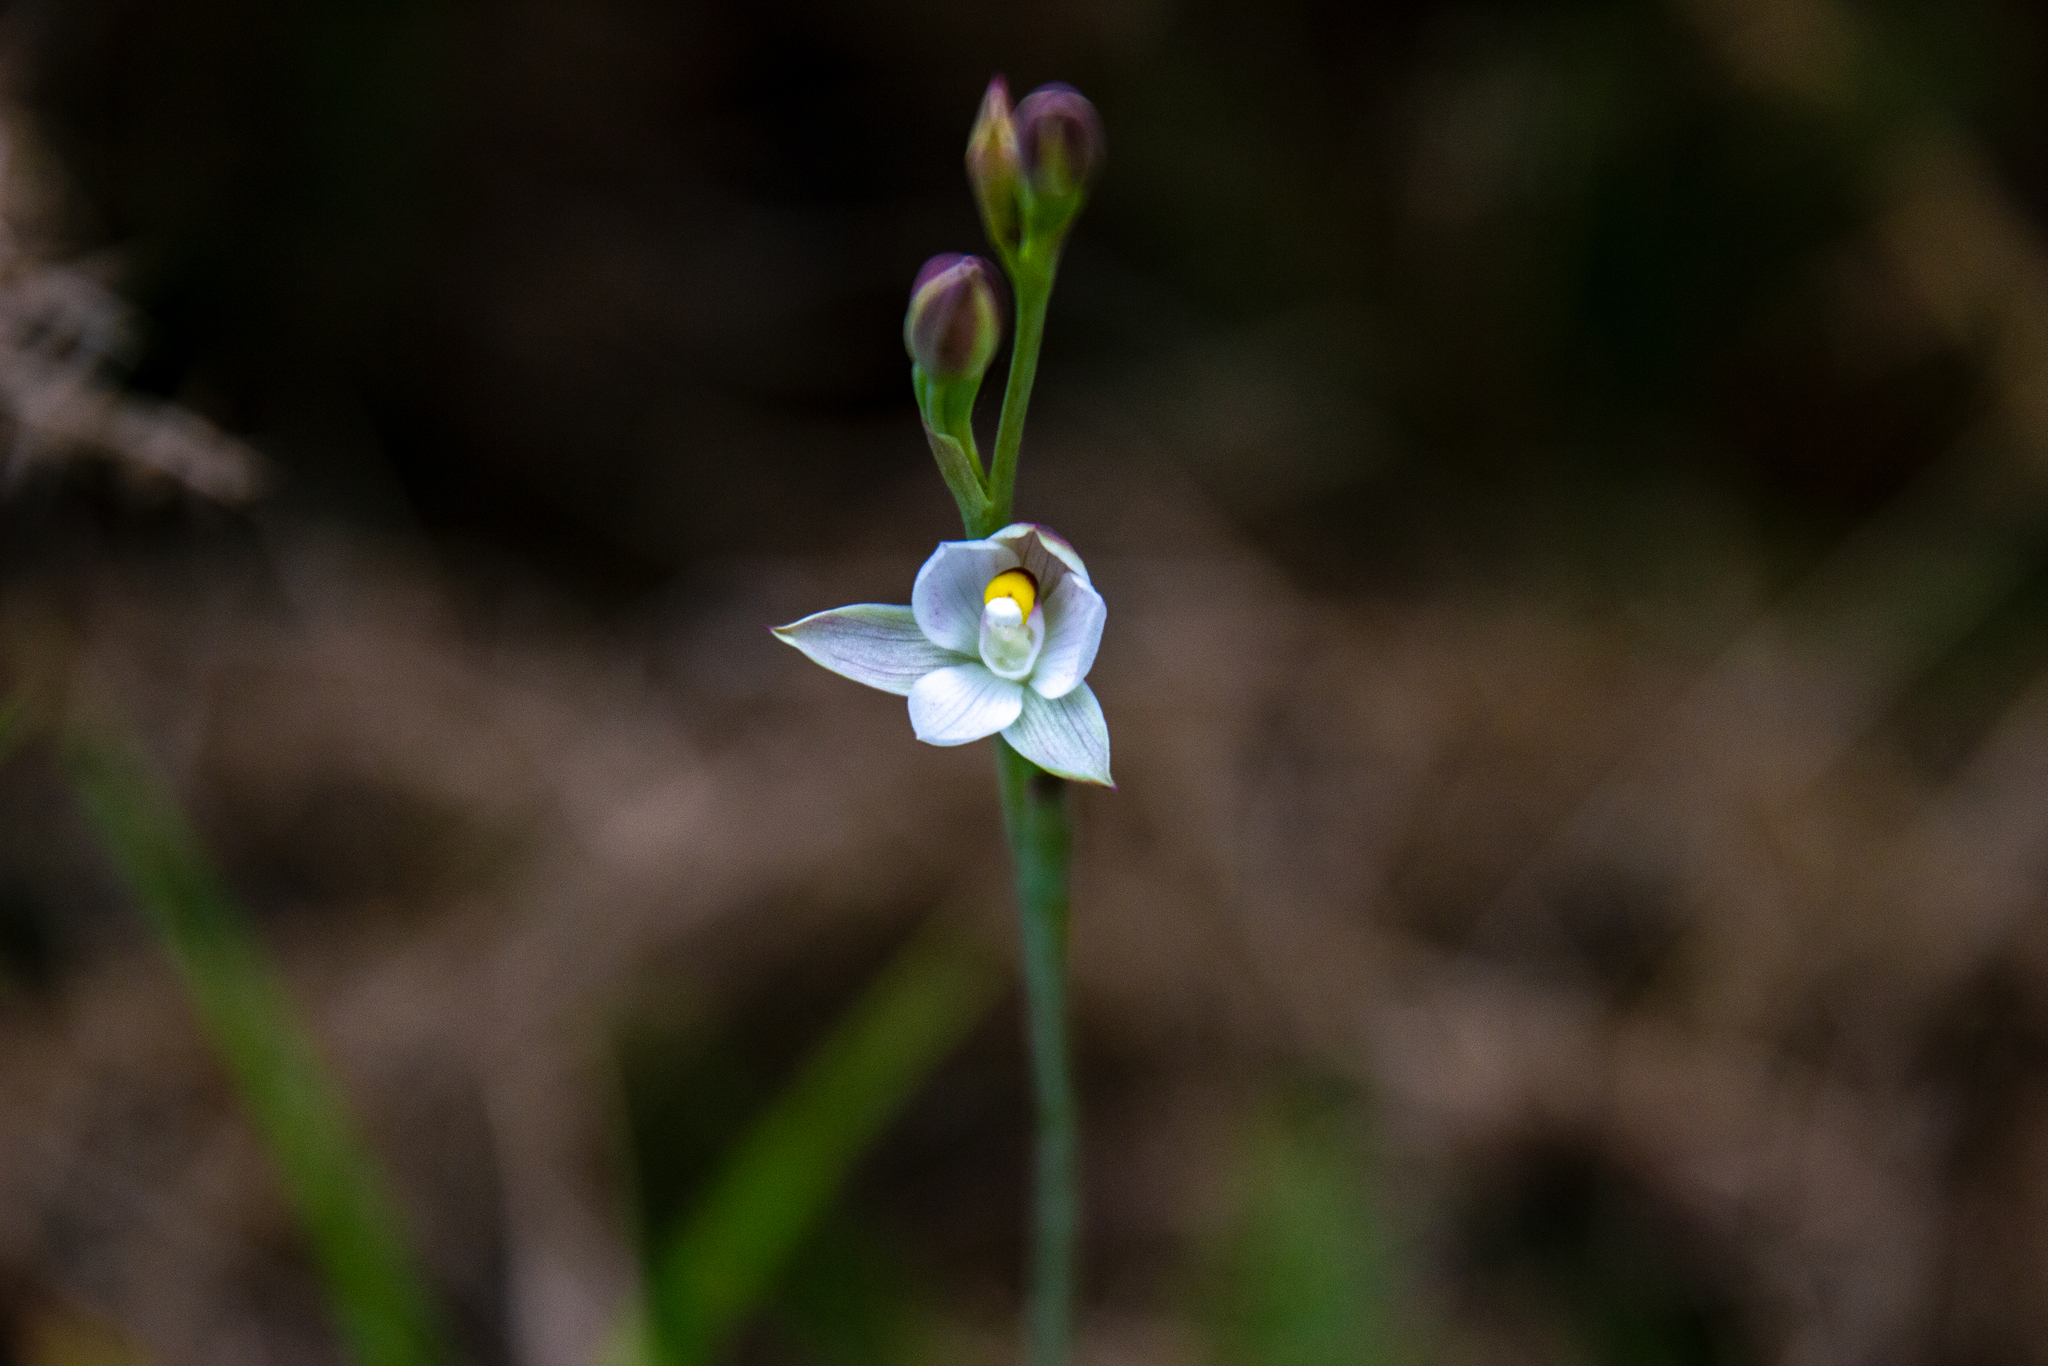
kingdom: Plantae
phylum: Tracheophyta
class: Liliopsida
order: Asparagales
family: Orchidaceae
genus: Thelymitra
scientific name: Thelymitra longifolia
